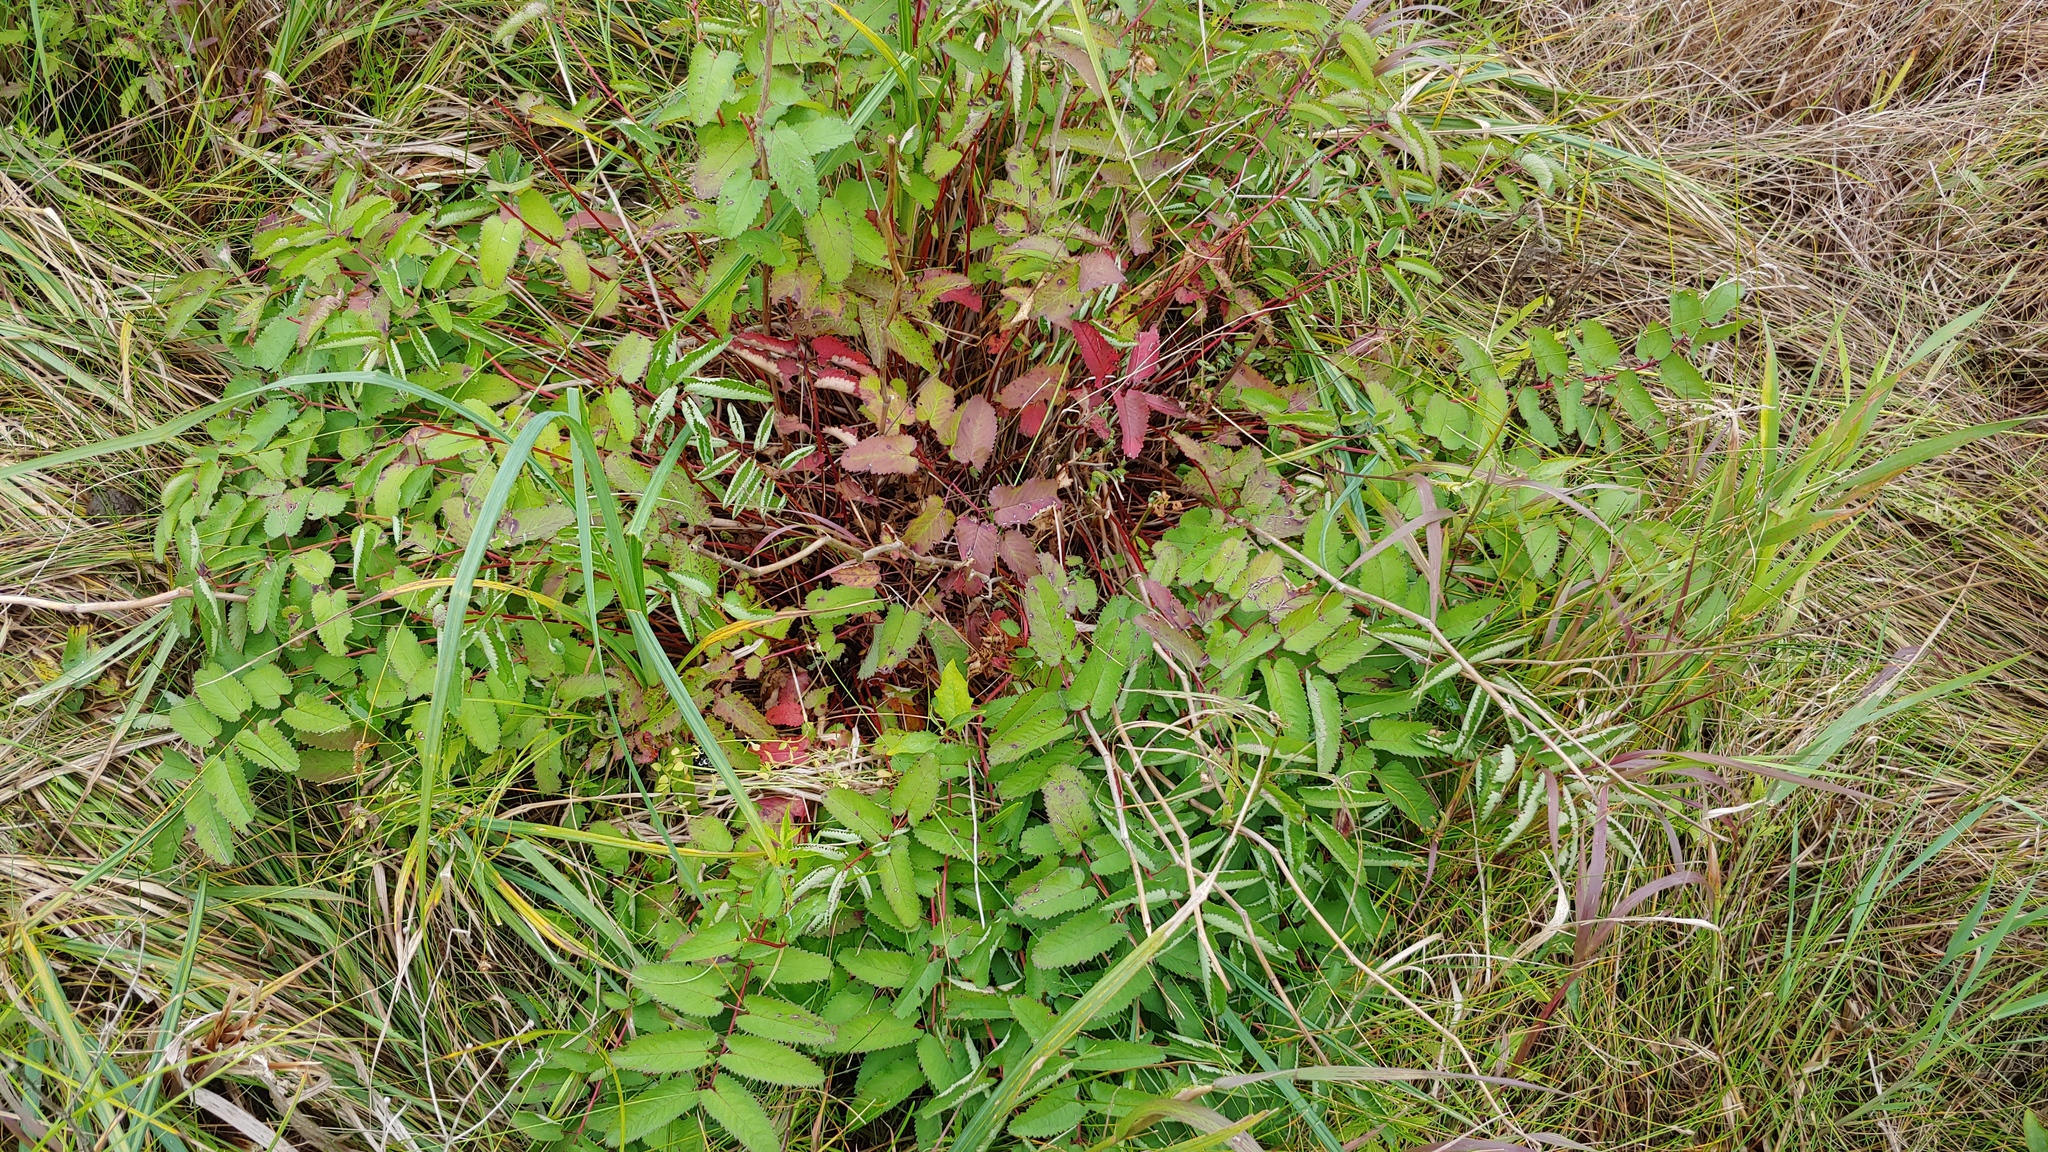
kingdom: Plantae
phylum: Tracheophyta
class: Magnoliopsida
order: Rosales
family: Rosaceae
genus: Sanguisorba
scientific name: Sanguisorba canadensis
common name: White burnet
